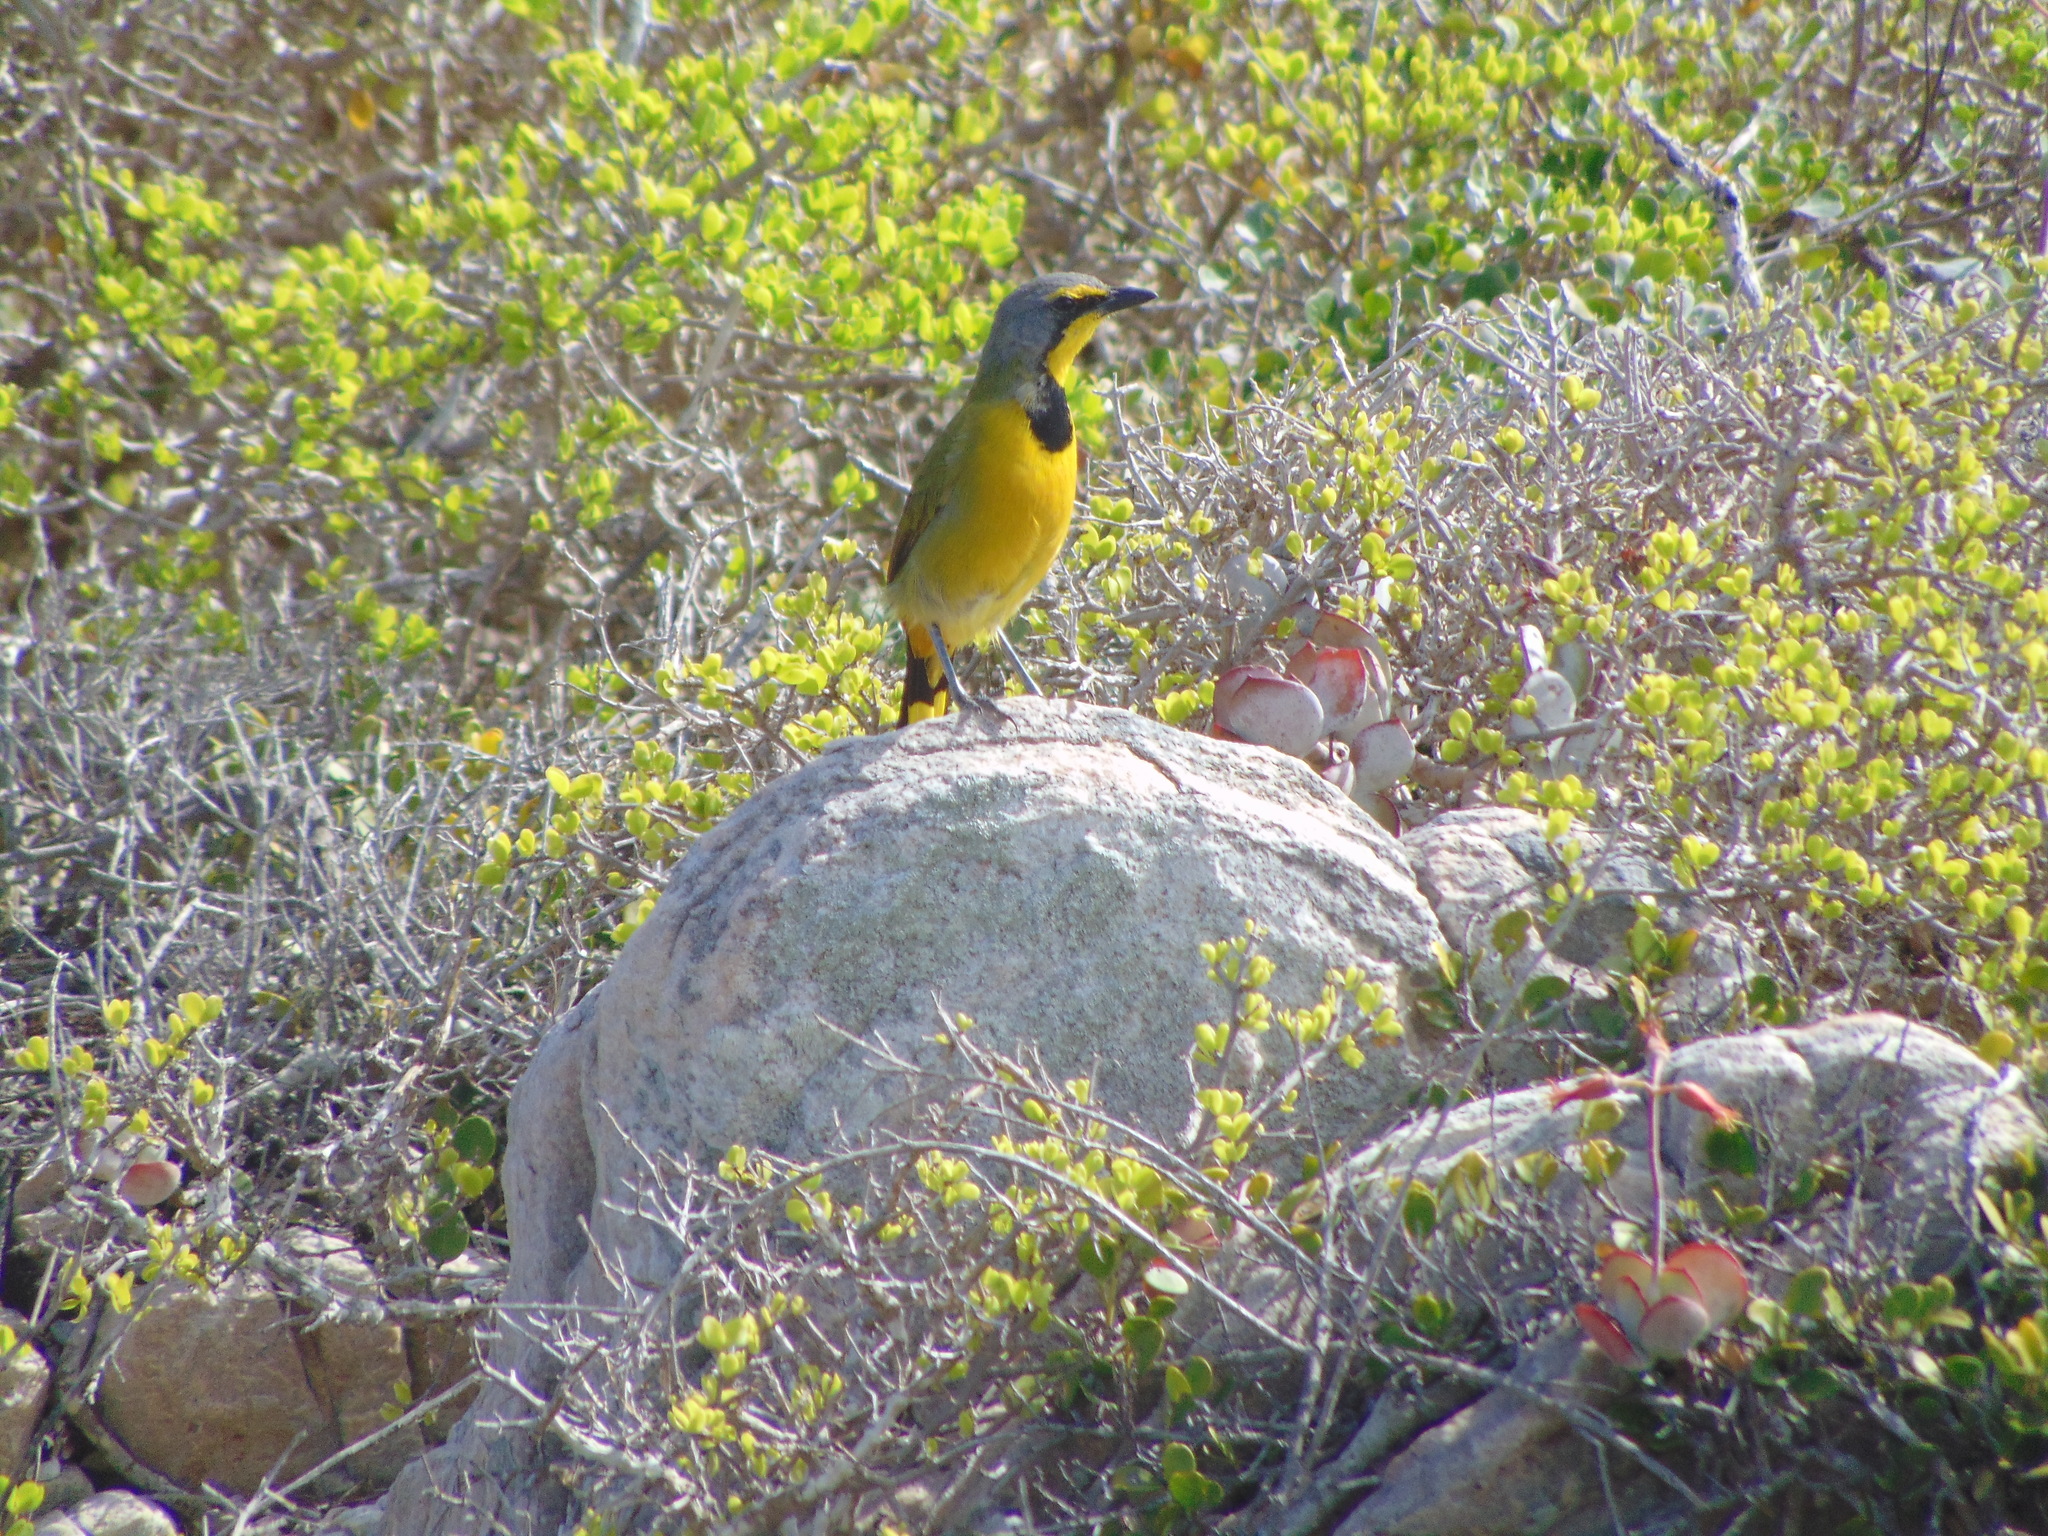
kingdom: Animalia
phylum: Chordata
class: Aves
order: Passeriformes
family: Malaconotidae
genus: Telophorus
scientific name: Telophorus zeylonus
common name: Bokmakierie
